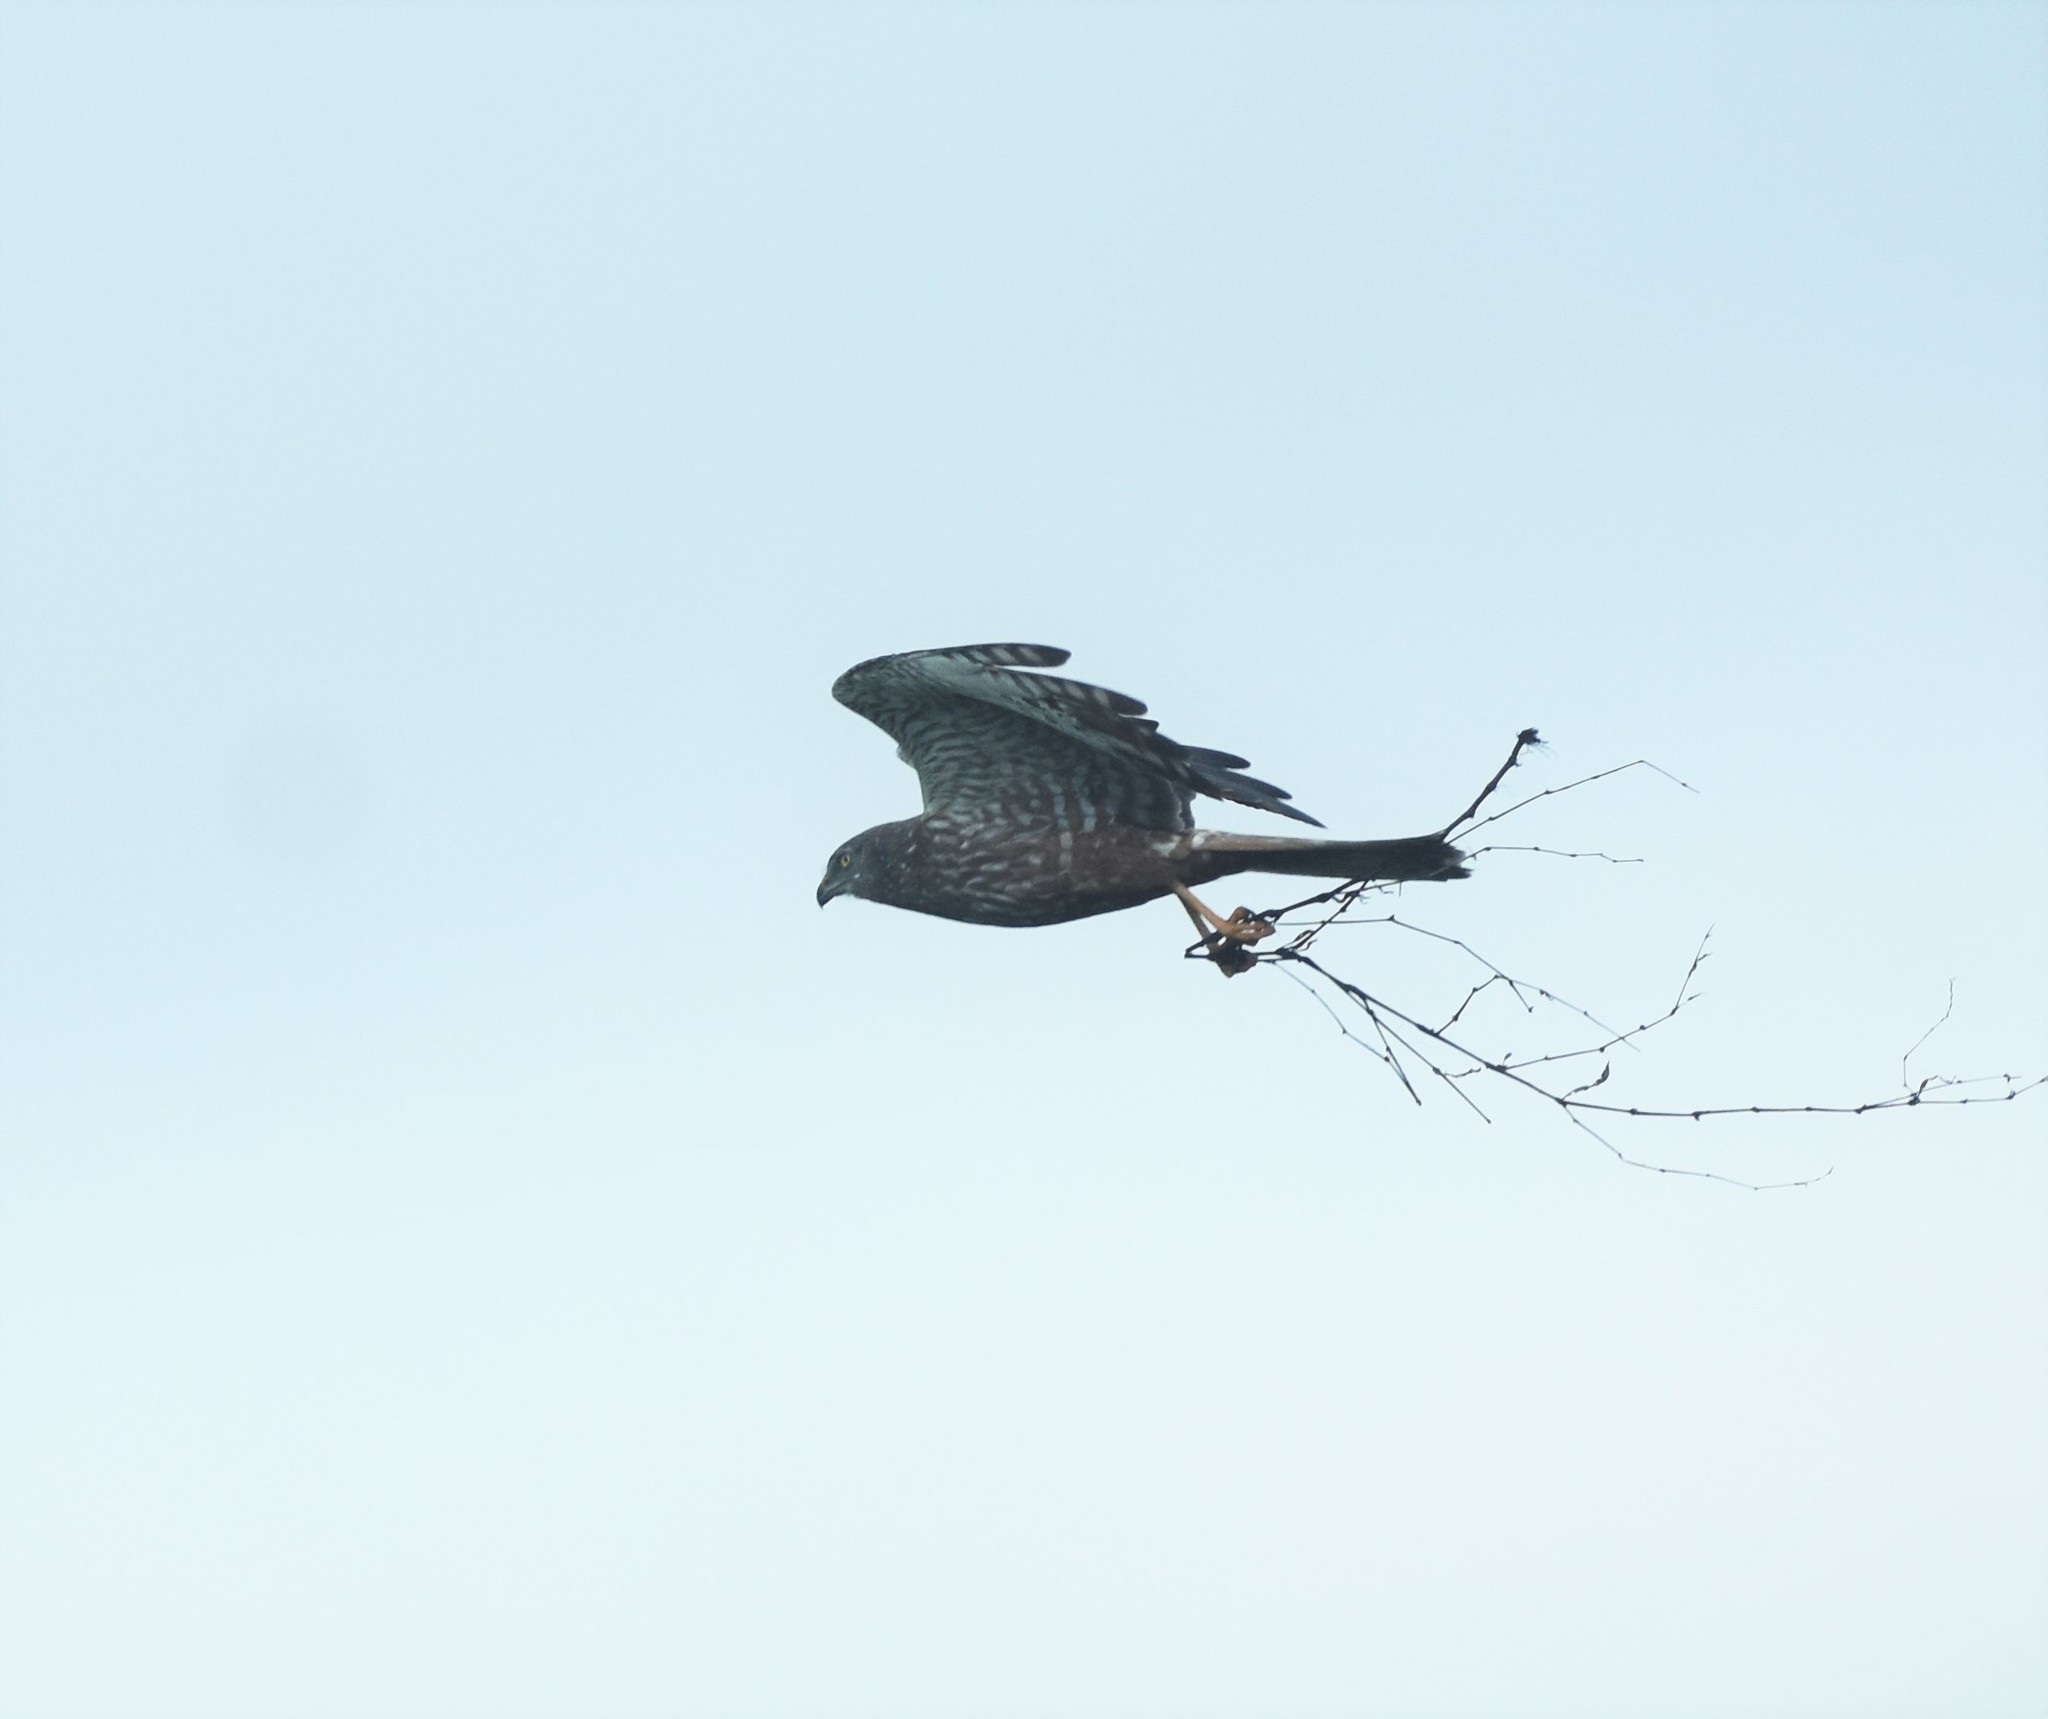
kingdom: Animalia
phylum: Chordata
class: Aves
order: Accipitriformes
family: Accipitridae
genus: Circus
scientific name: Circus ranivorus
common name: African marsh-harrier
